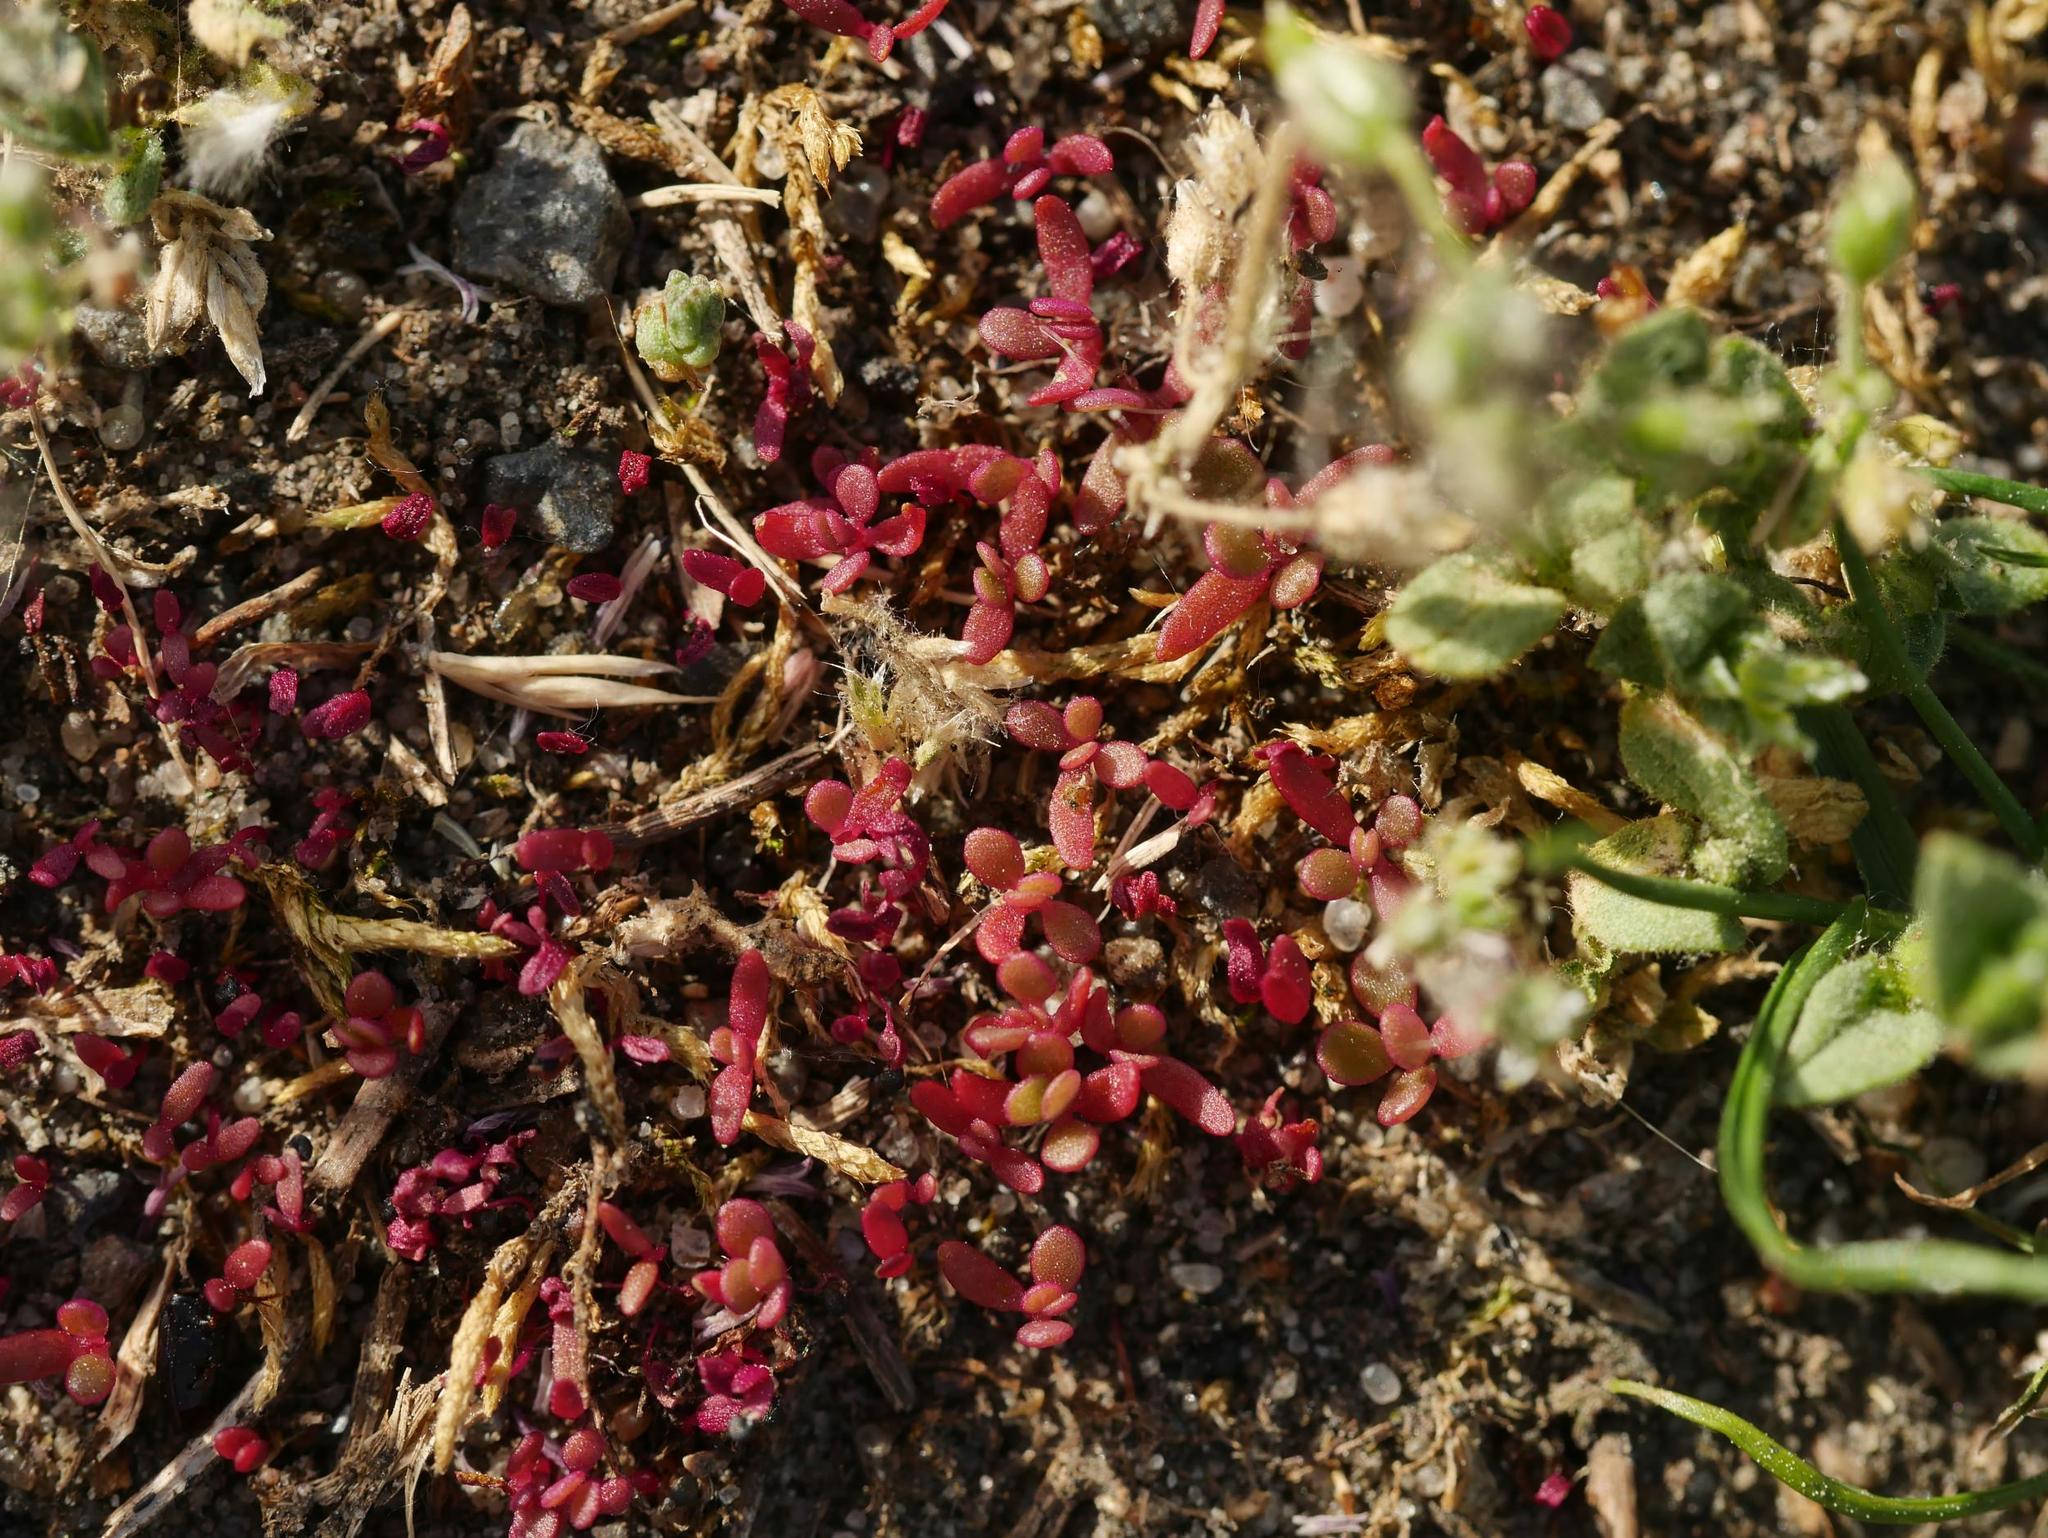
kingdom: Plantae
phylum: Tracheophyta
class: Magnoliopsida
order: Caryophyllales
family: Portulacaceae
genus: Portulaca
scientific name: Portulaca oleracea
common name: Common purslane
